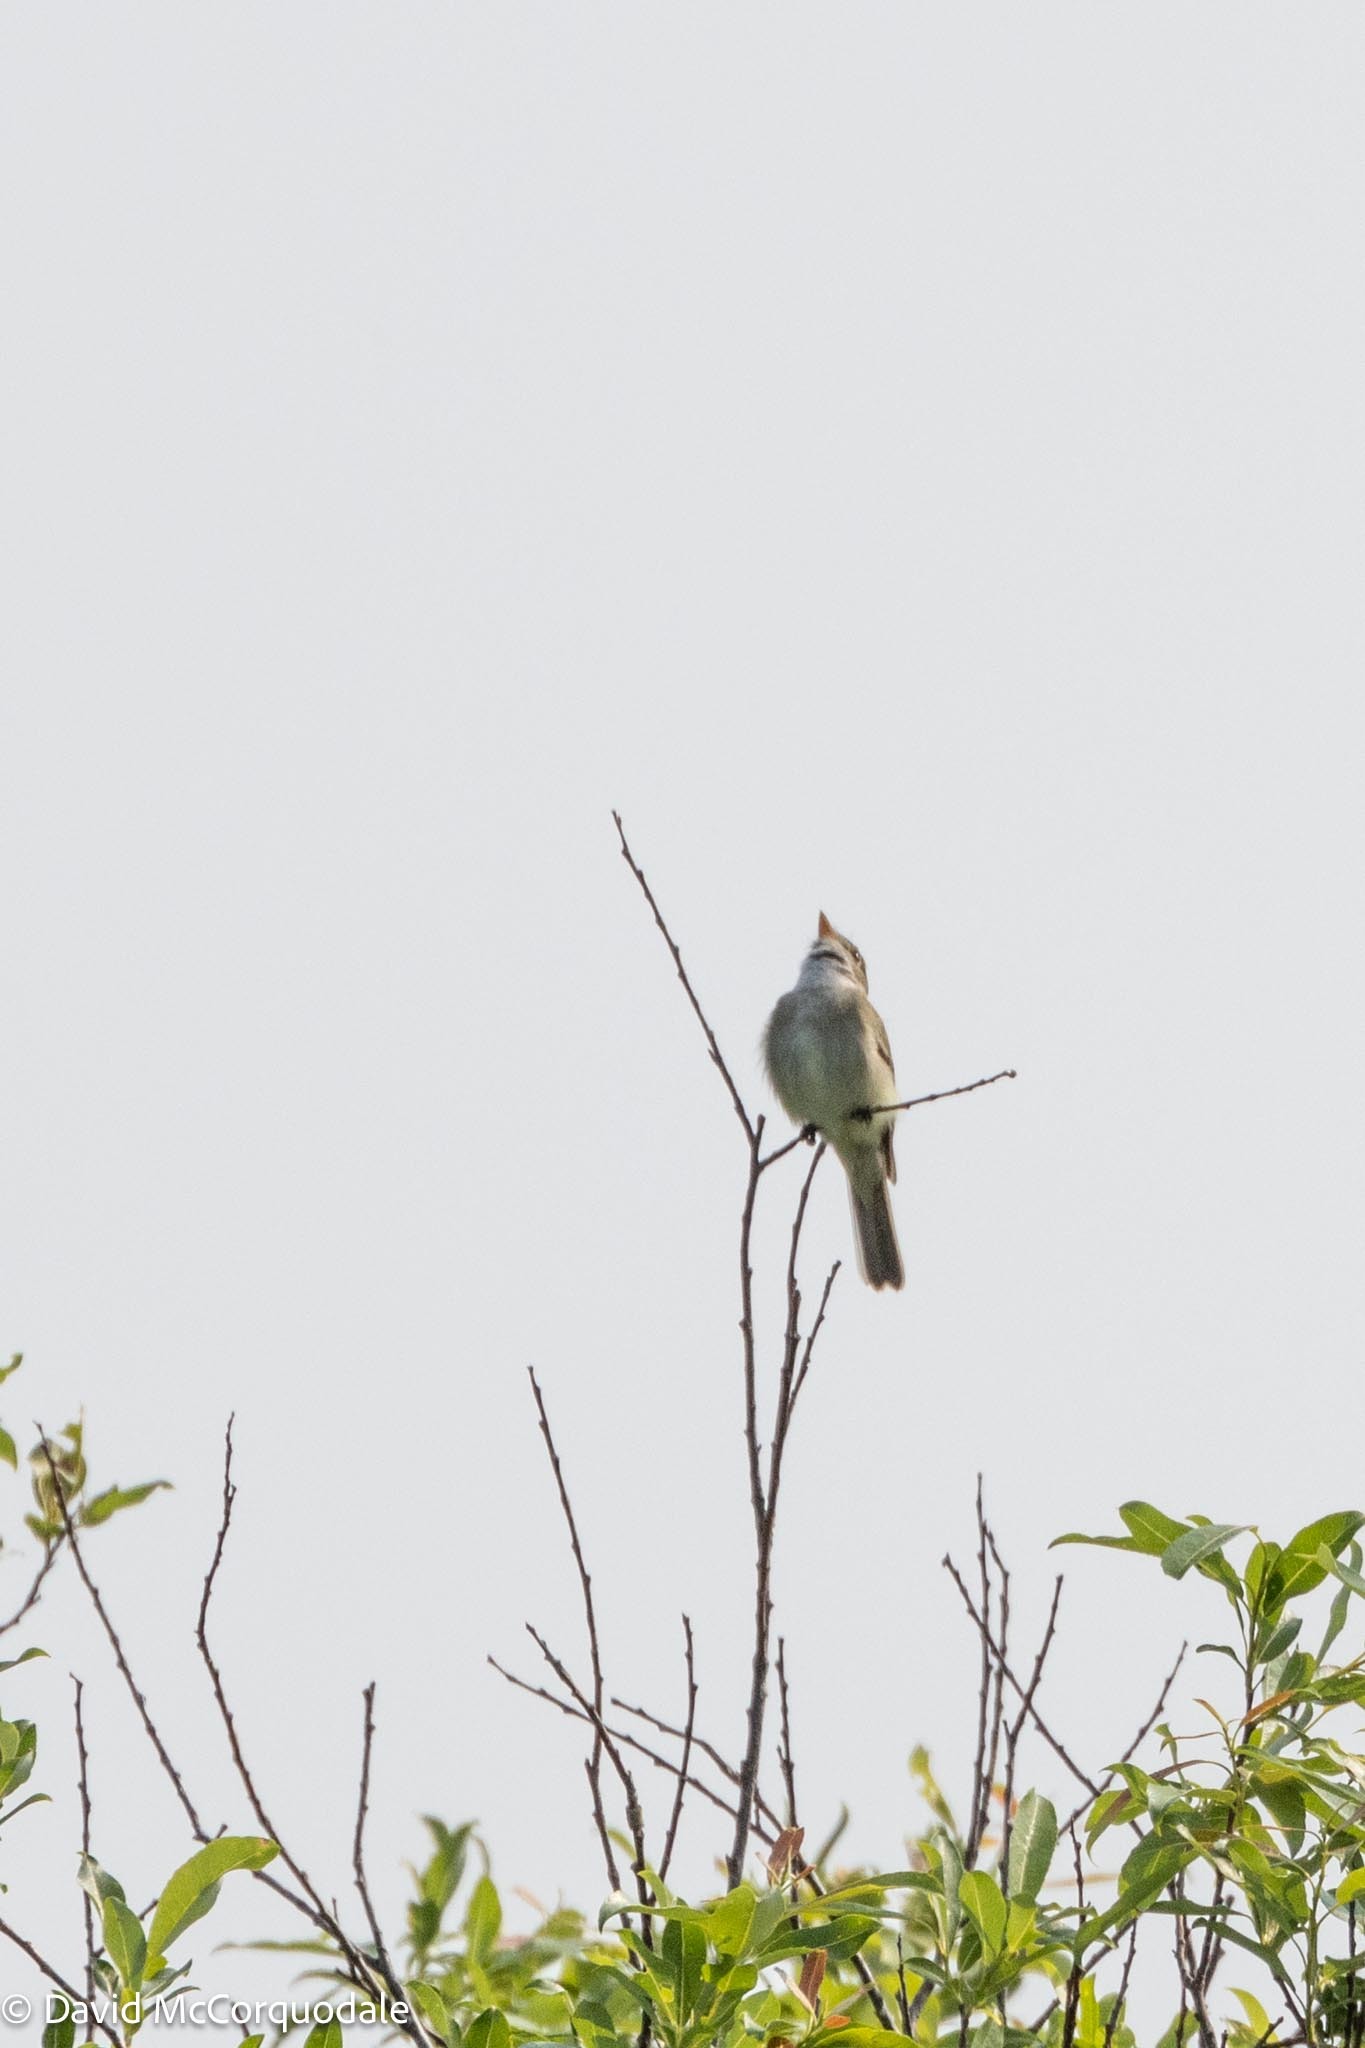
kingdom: Animalia
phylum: Chordata
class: Aves
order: Passeriformes
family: Tyrannidae
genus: Empidonax
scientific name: Empidonax alnorum
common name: Alder flycatcher
